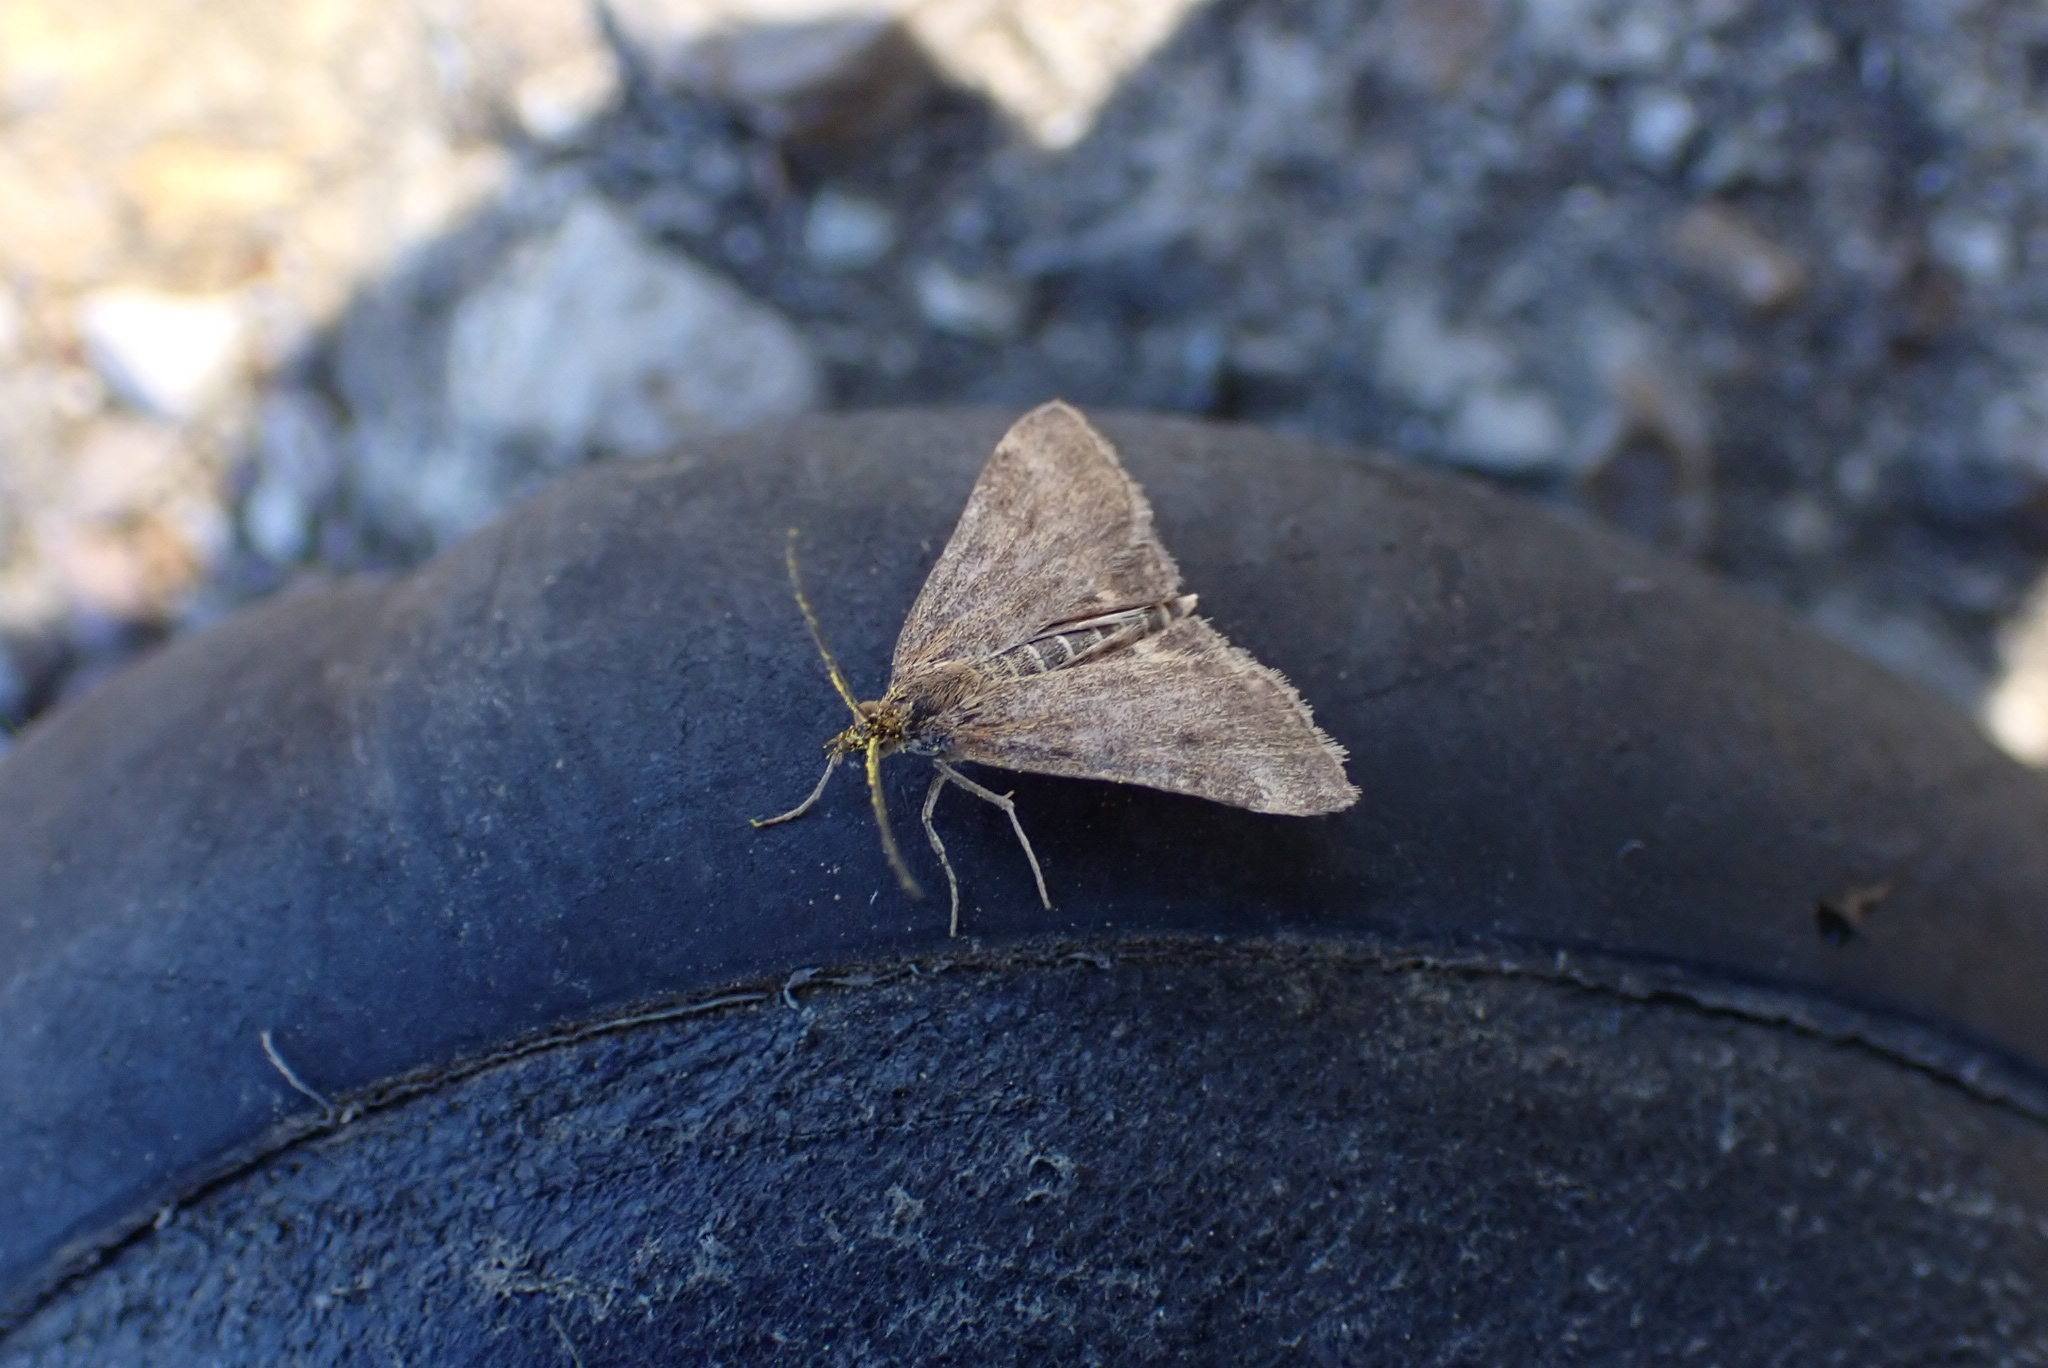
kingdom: Animalia
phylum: Arthropoda
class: Insecta
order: Lepidoptera
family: Crambidae
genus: Pyrausta
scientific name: Pyrausta despicata
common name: Straw-barred pearl
